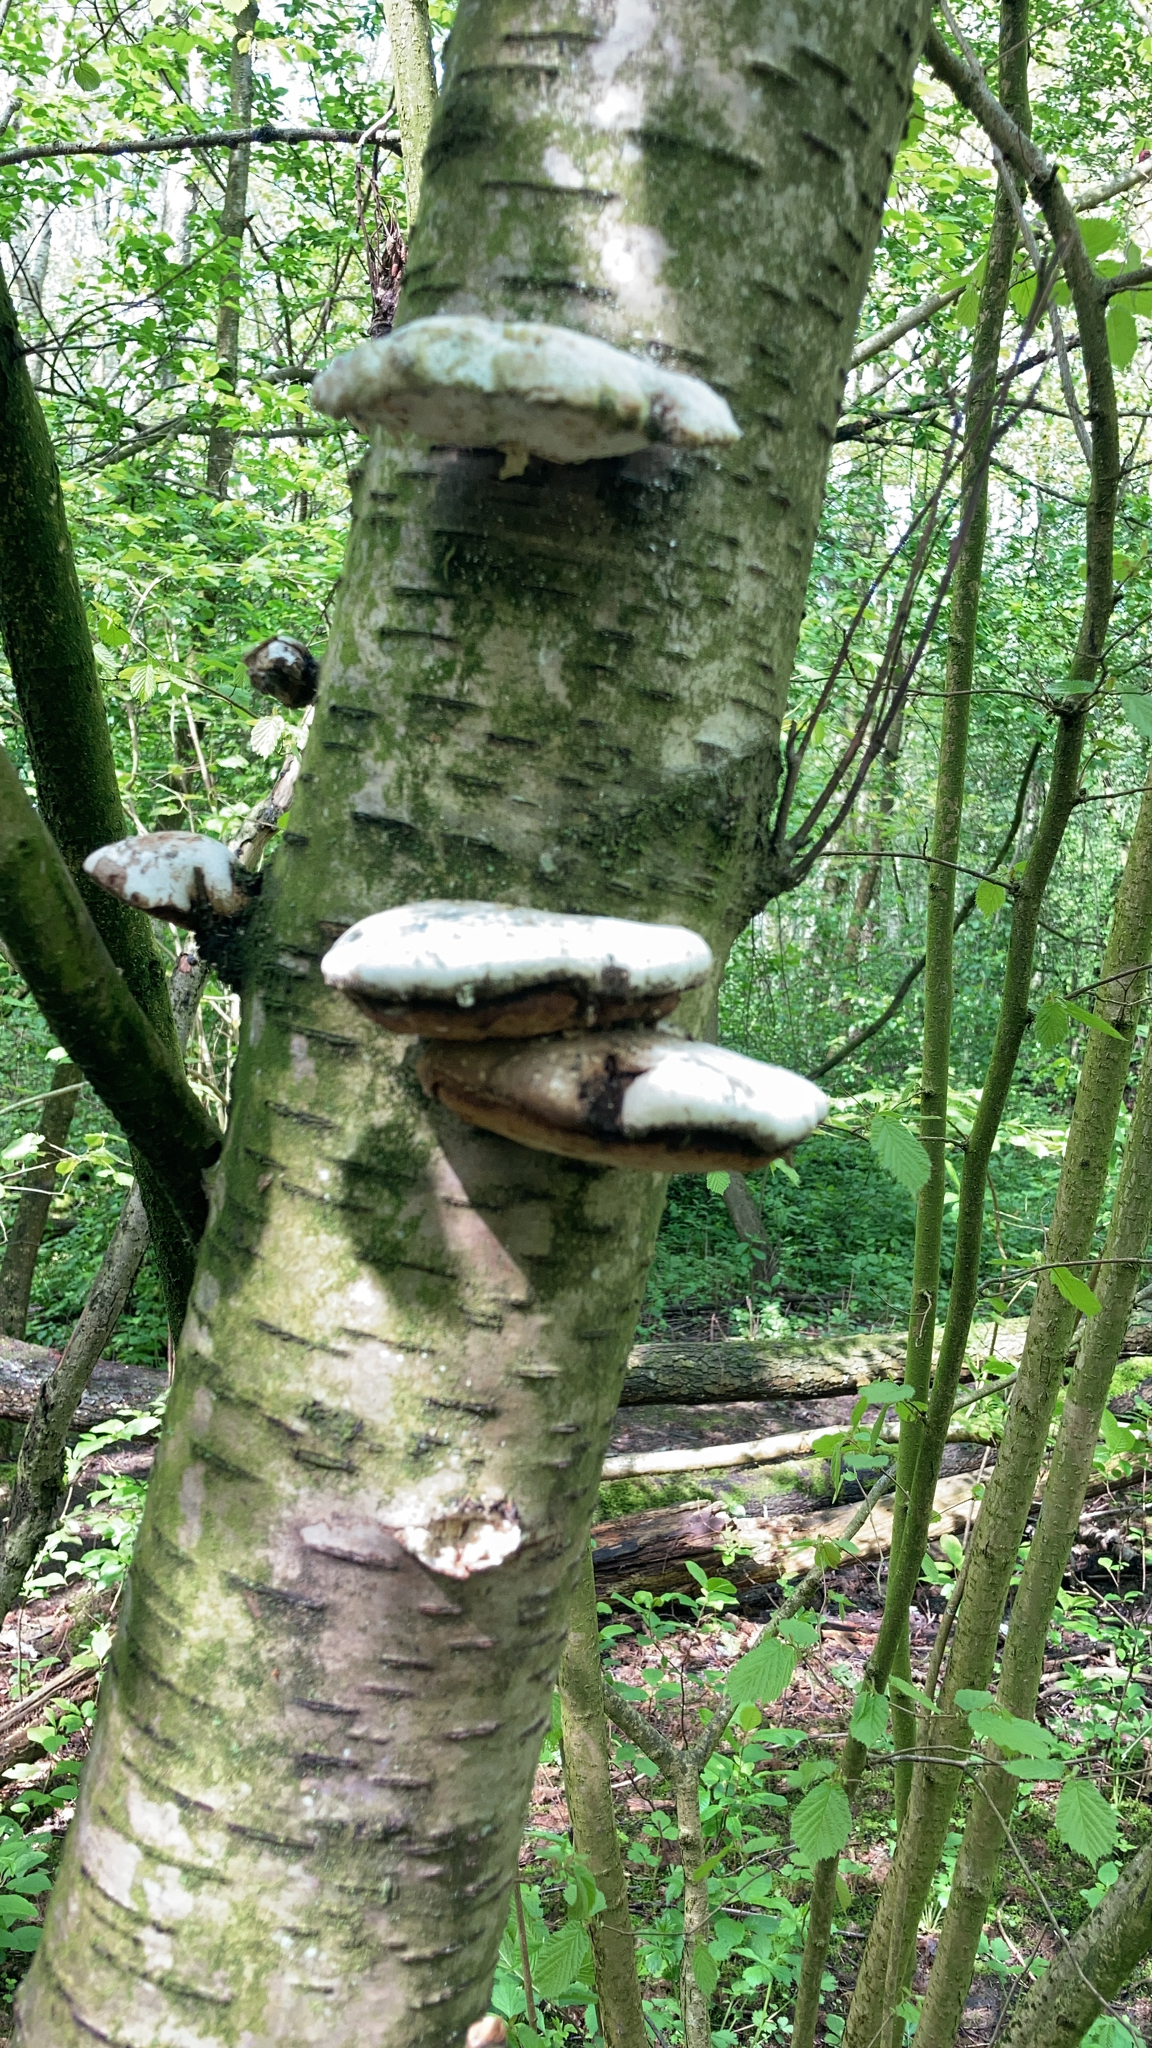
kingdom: Fungi
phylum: Basidiomycota
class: Agaricomycetes
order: Polyporales
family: Fomitopsidaceae
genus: Fomitopsis
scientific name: Fomitopsis betulina
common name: Birch polypore
